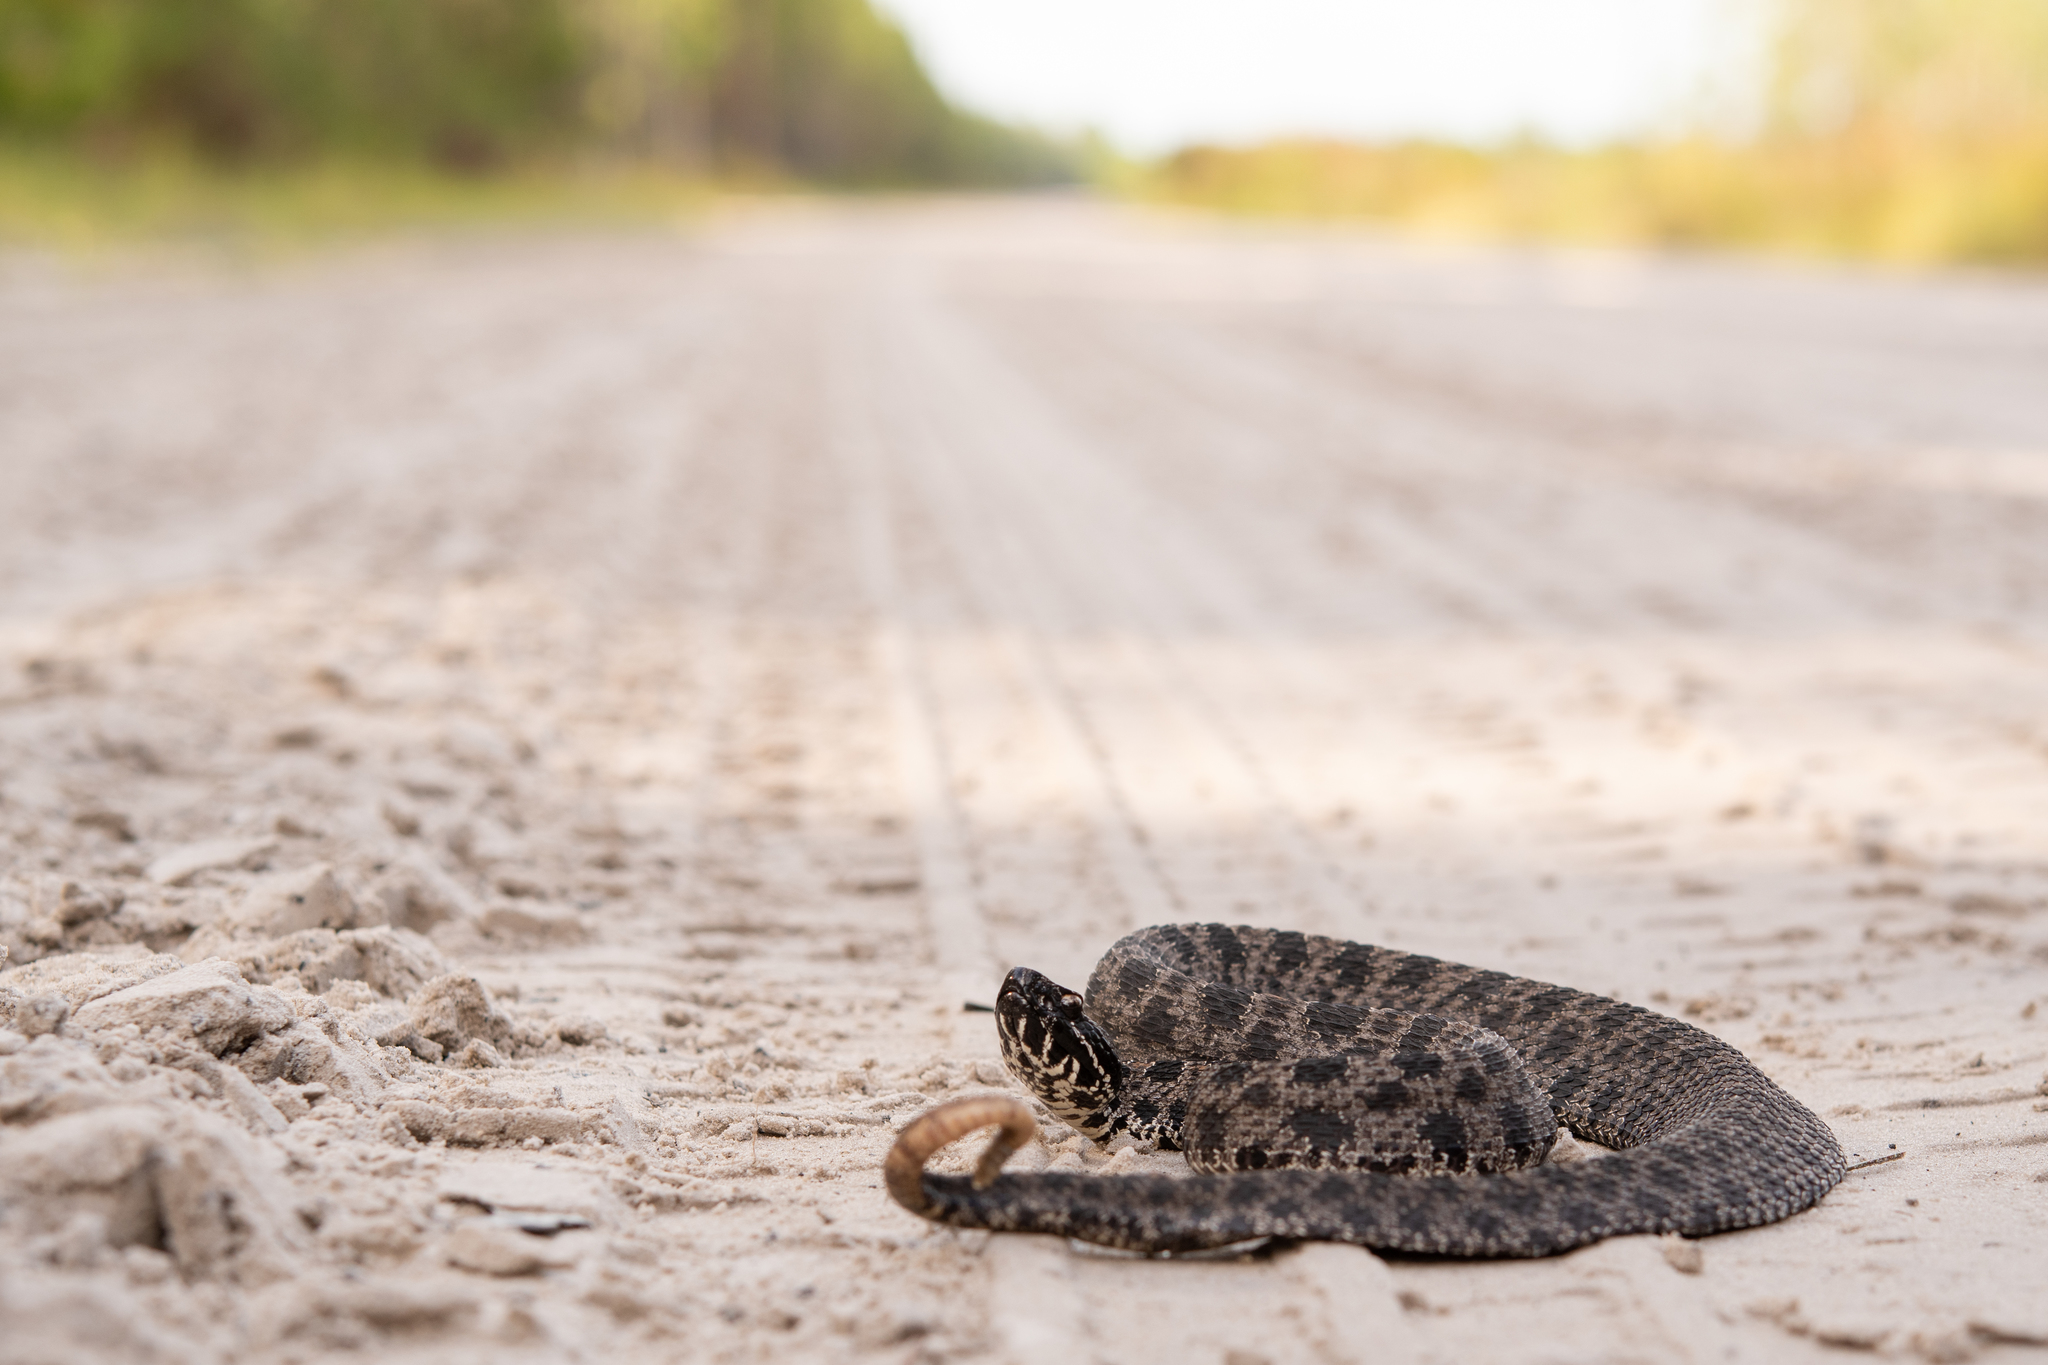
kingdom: Animalia
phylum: Chordata
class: Squamata
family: Viperidae
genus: Sistrurus
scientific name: Sistrurus miliarius
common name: Pygmy rattlesnake
